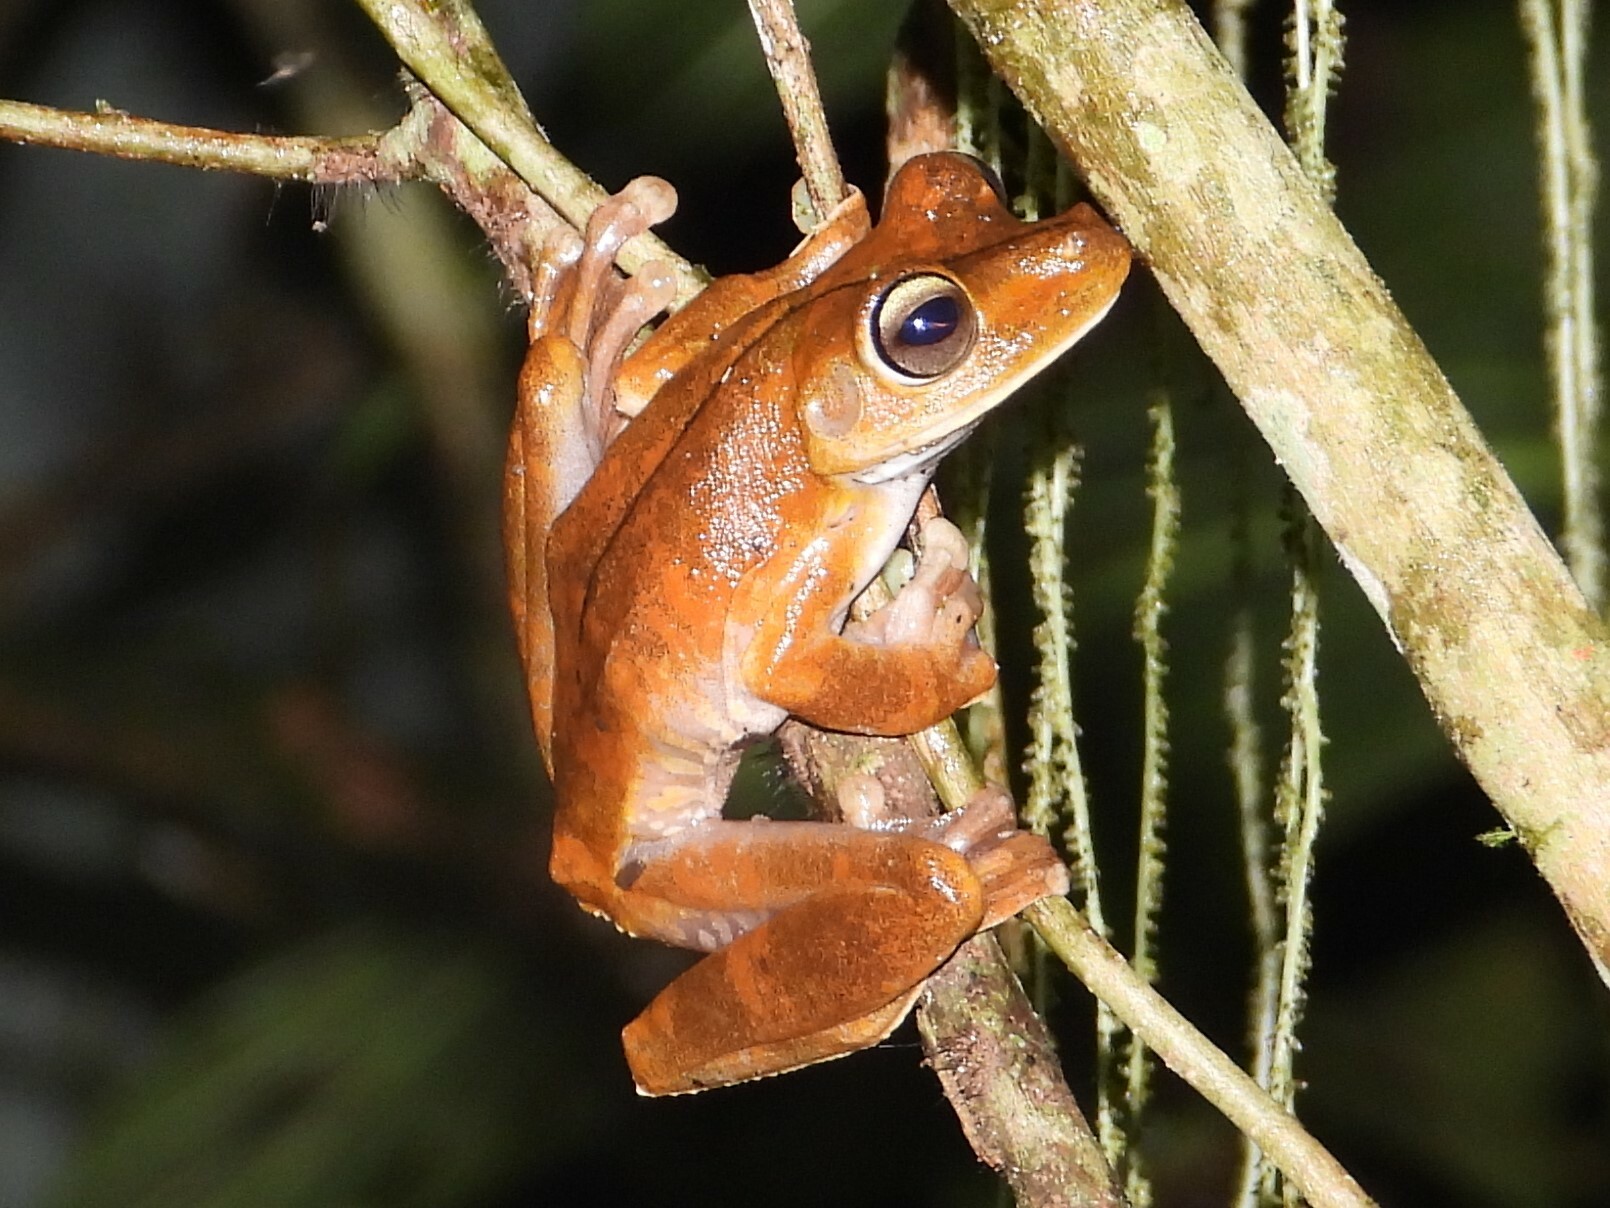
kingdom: Animalia
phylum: Chordata
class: Amphibia
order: Anura
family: Hylidae
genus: Boana
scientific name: Boana rosenbergi
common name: Rosenberg´s gladiator treefrog
